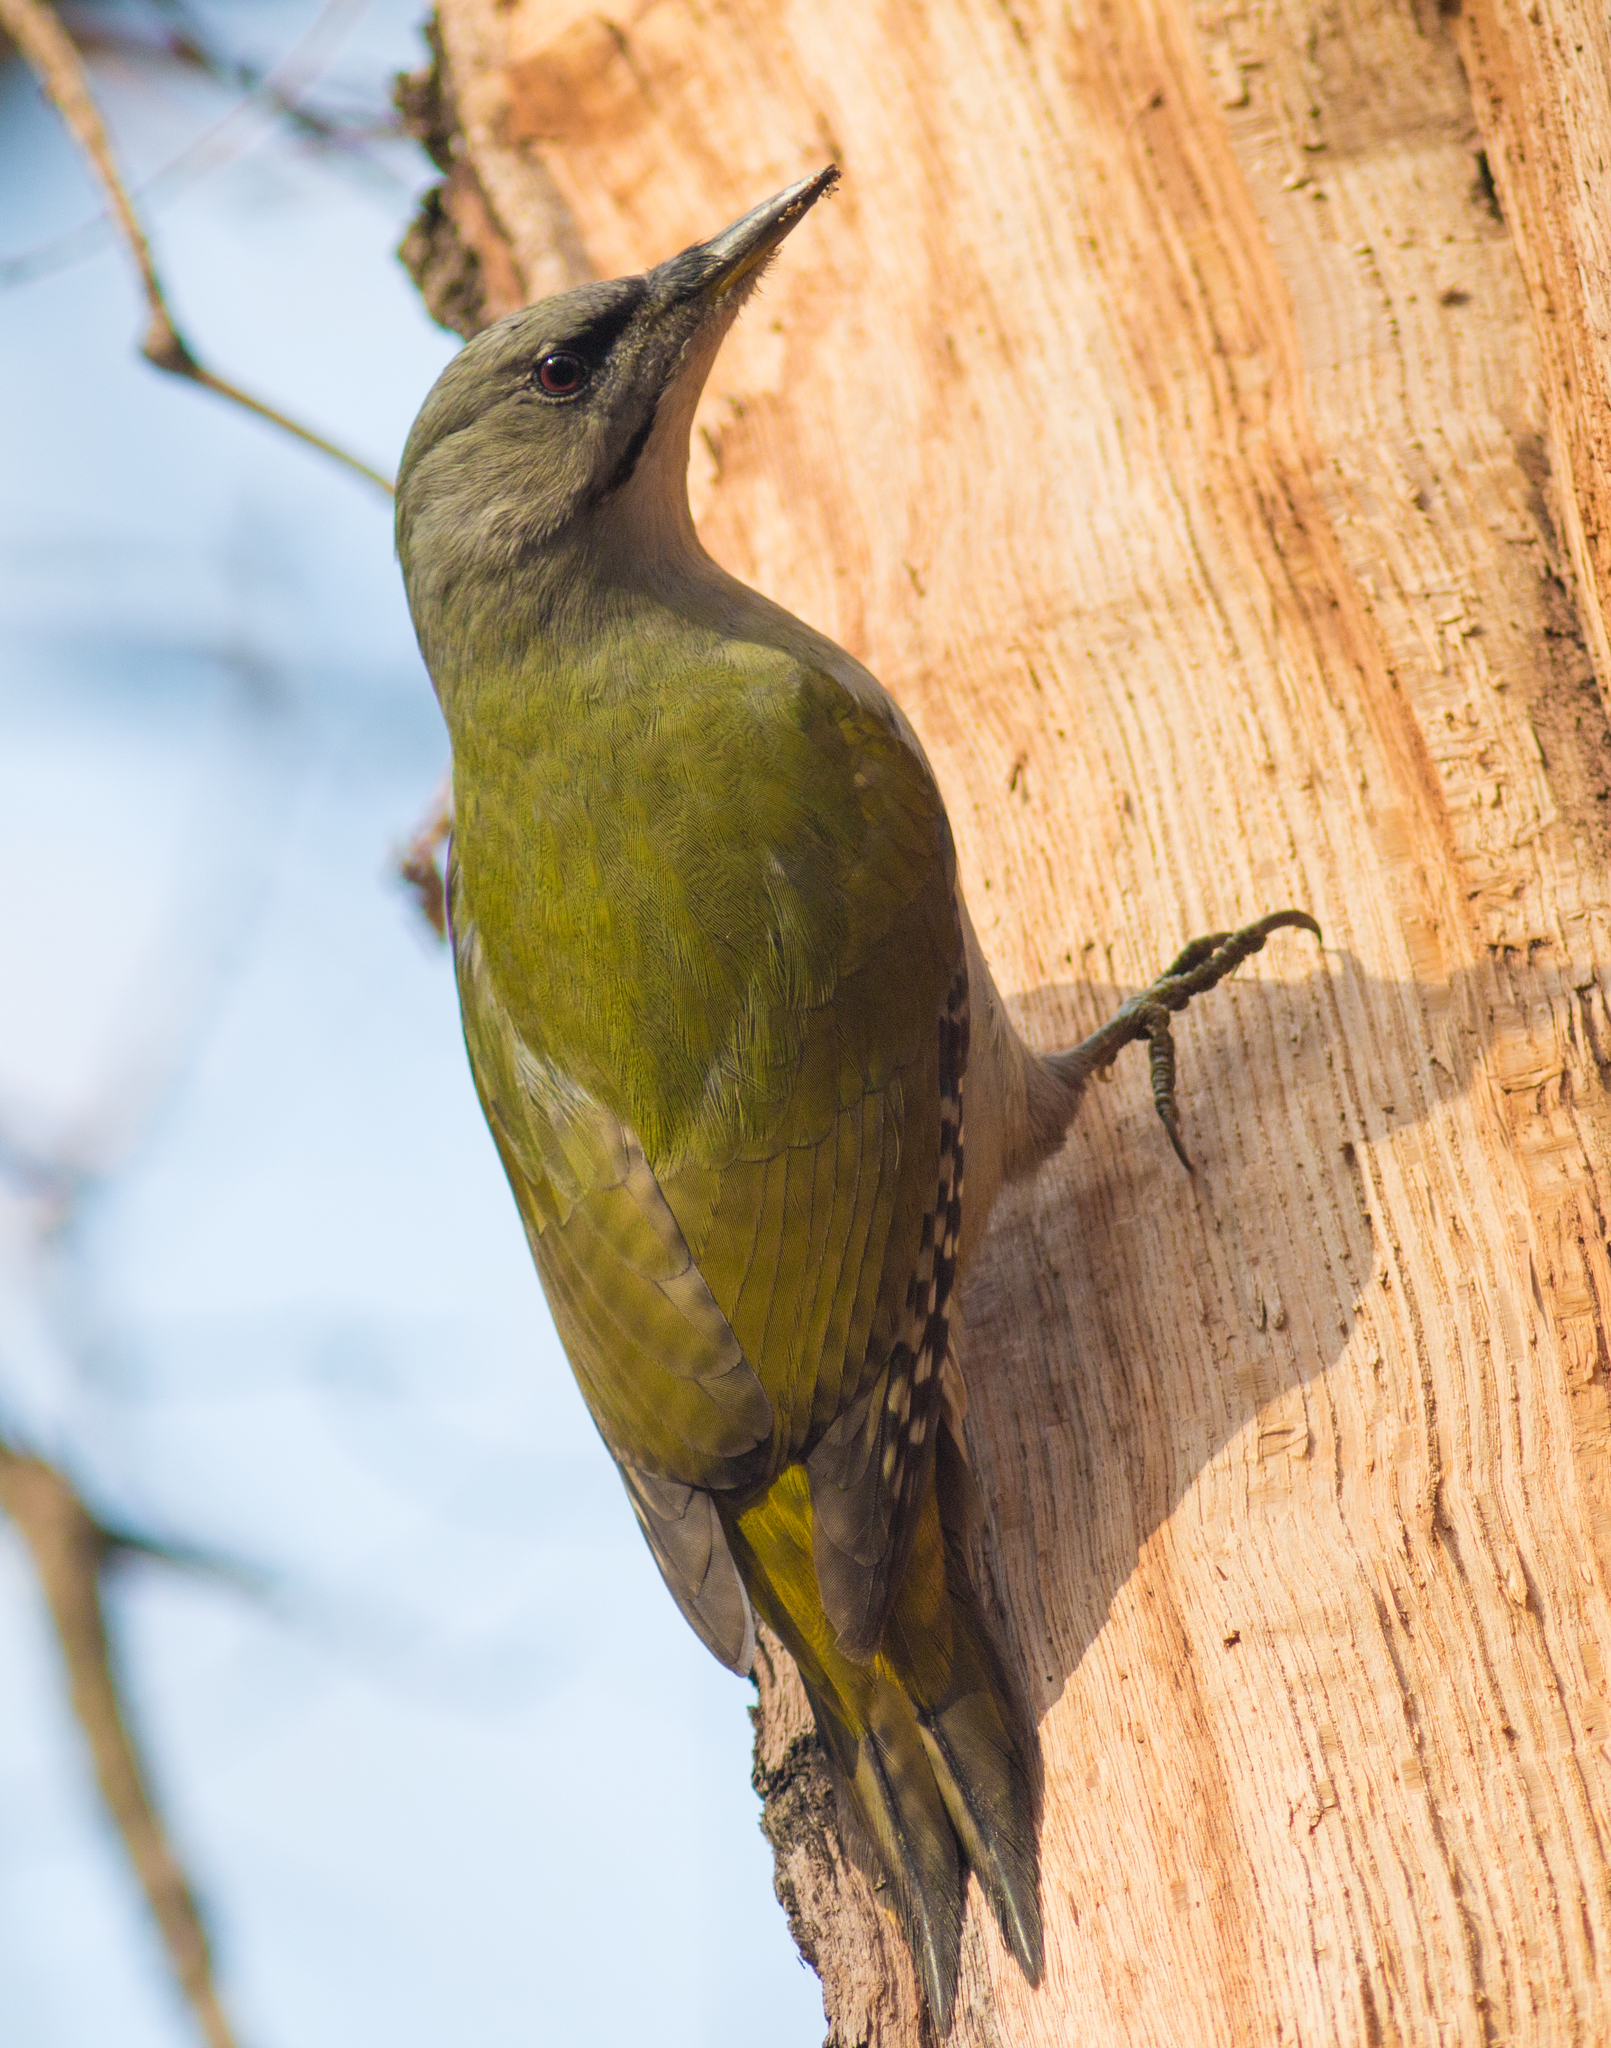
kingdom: Animalia
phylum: Chordata
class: Aves
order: Piciformes
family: Picidae
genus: Picus
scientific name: Picus canus
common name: Grey-headed woodpecker
